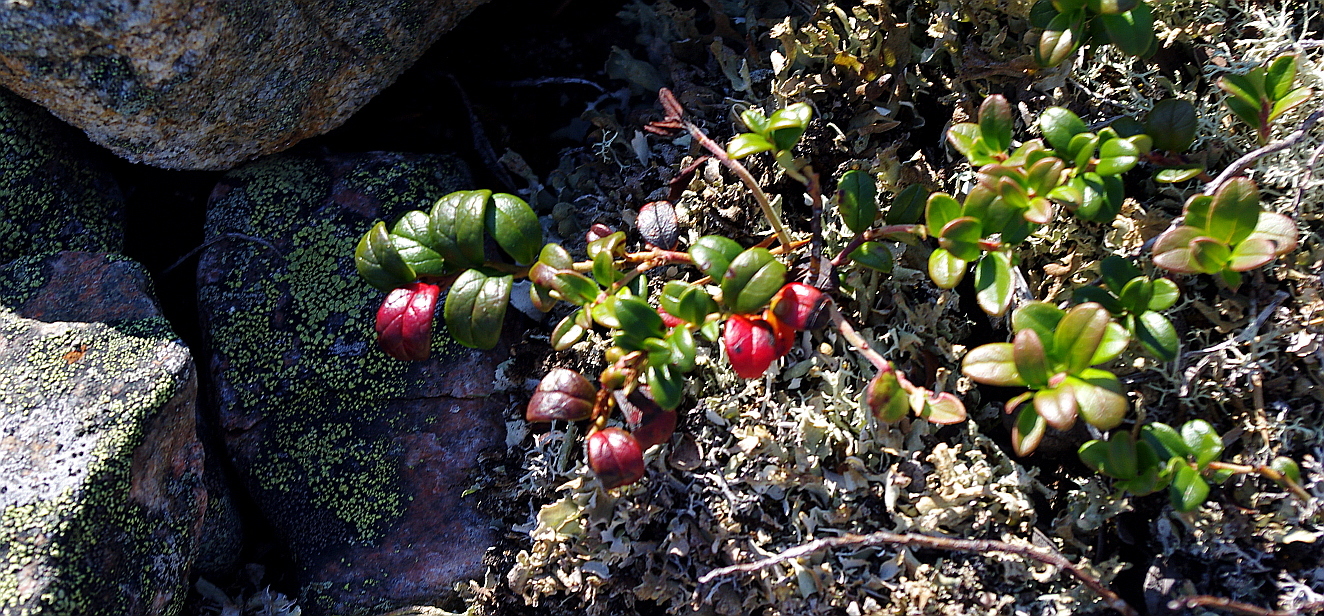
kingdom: Plantae
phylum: Tracheophyta
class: Magnoliopsida
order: Ericales
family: Ericaceae
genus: Vaccinium
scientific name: Vaccinium vitis-idaea
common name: Cowberry
